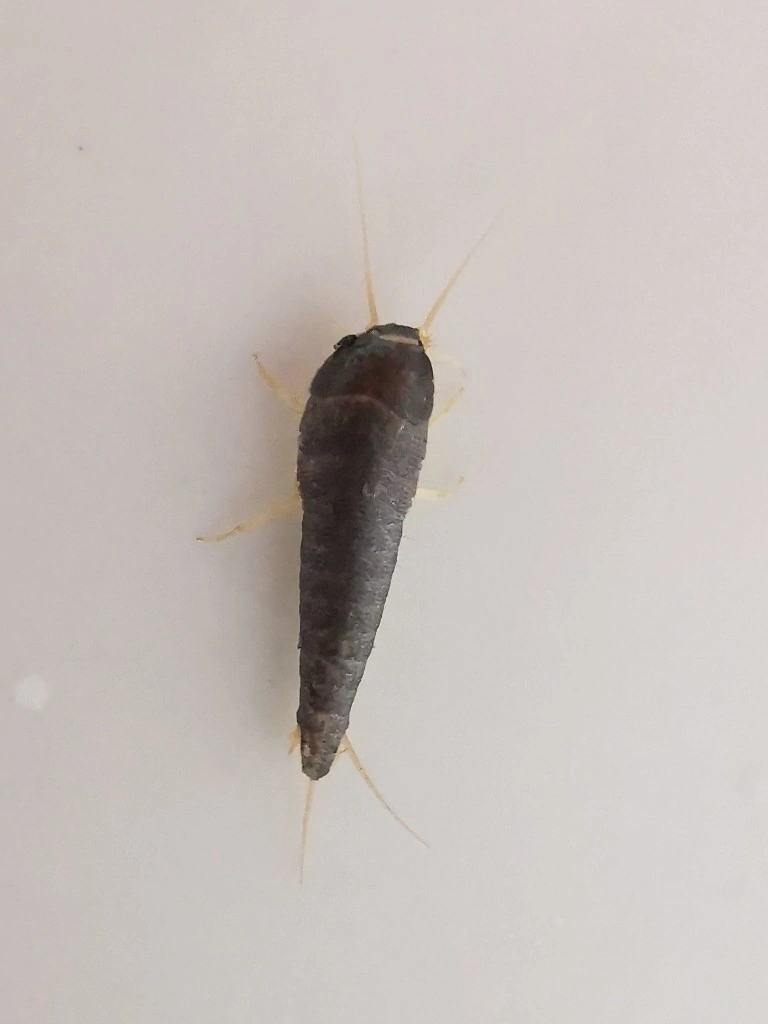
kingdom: Animalia
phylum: Arthropoda
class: Insecta
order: Zygentoma
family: Lepismatidae
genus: Lepisma
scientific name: Lepisma saccharinum
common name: Silverfish
